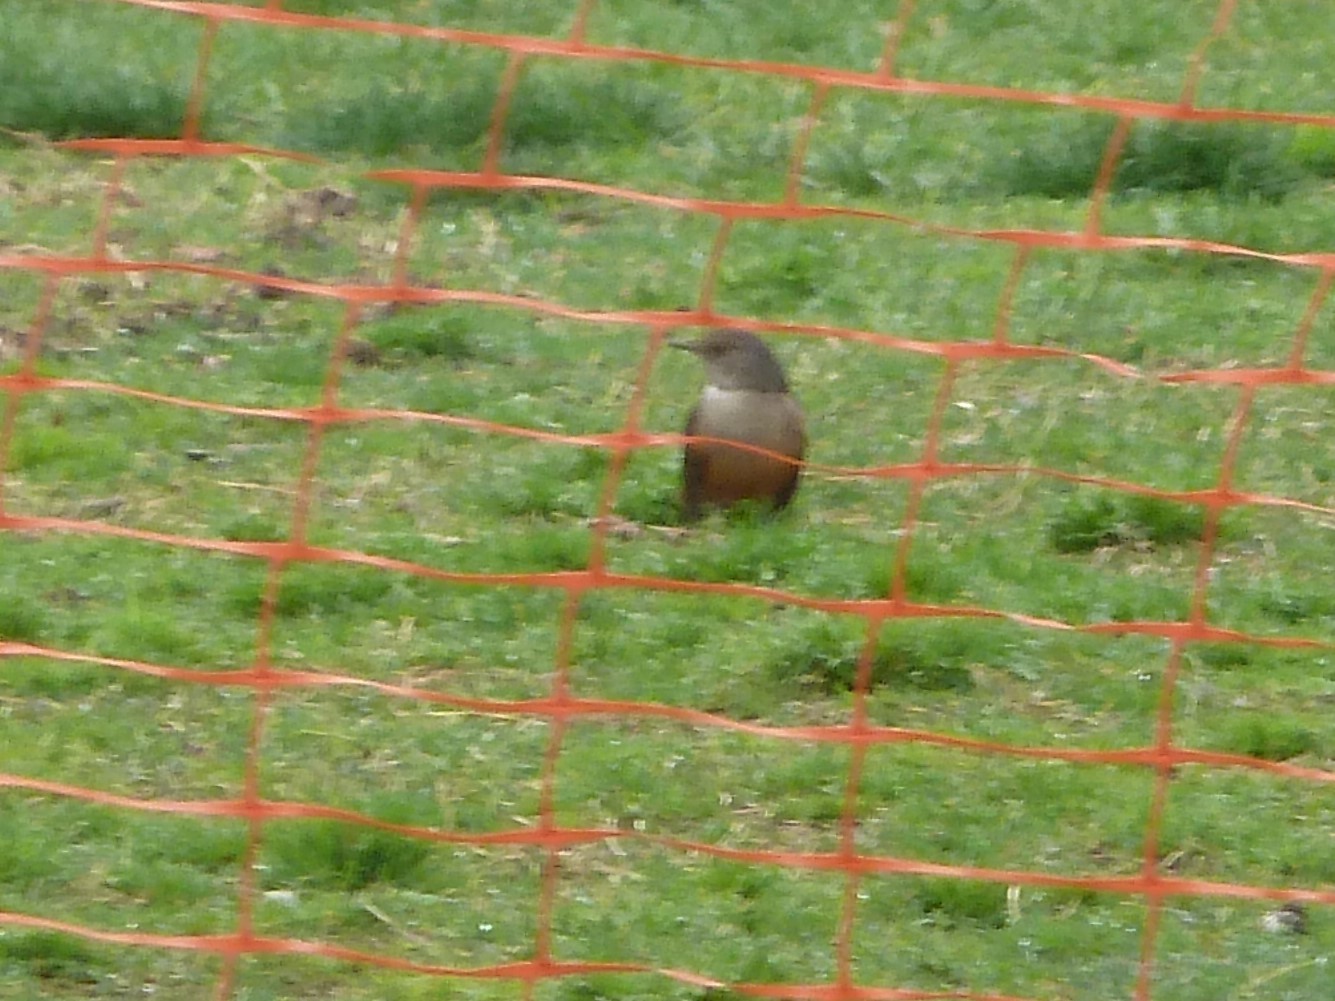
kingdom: Animalia
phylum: Chordata
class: Aves
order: Passeriformes
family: Turdidae
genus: Turdus
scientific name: Turdus rufiventris
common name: Rufous-bellied thrush
